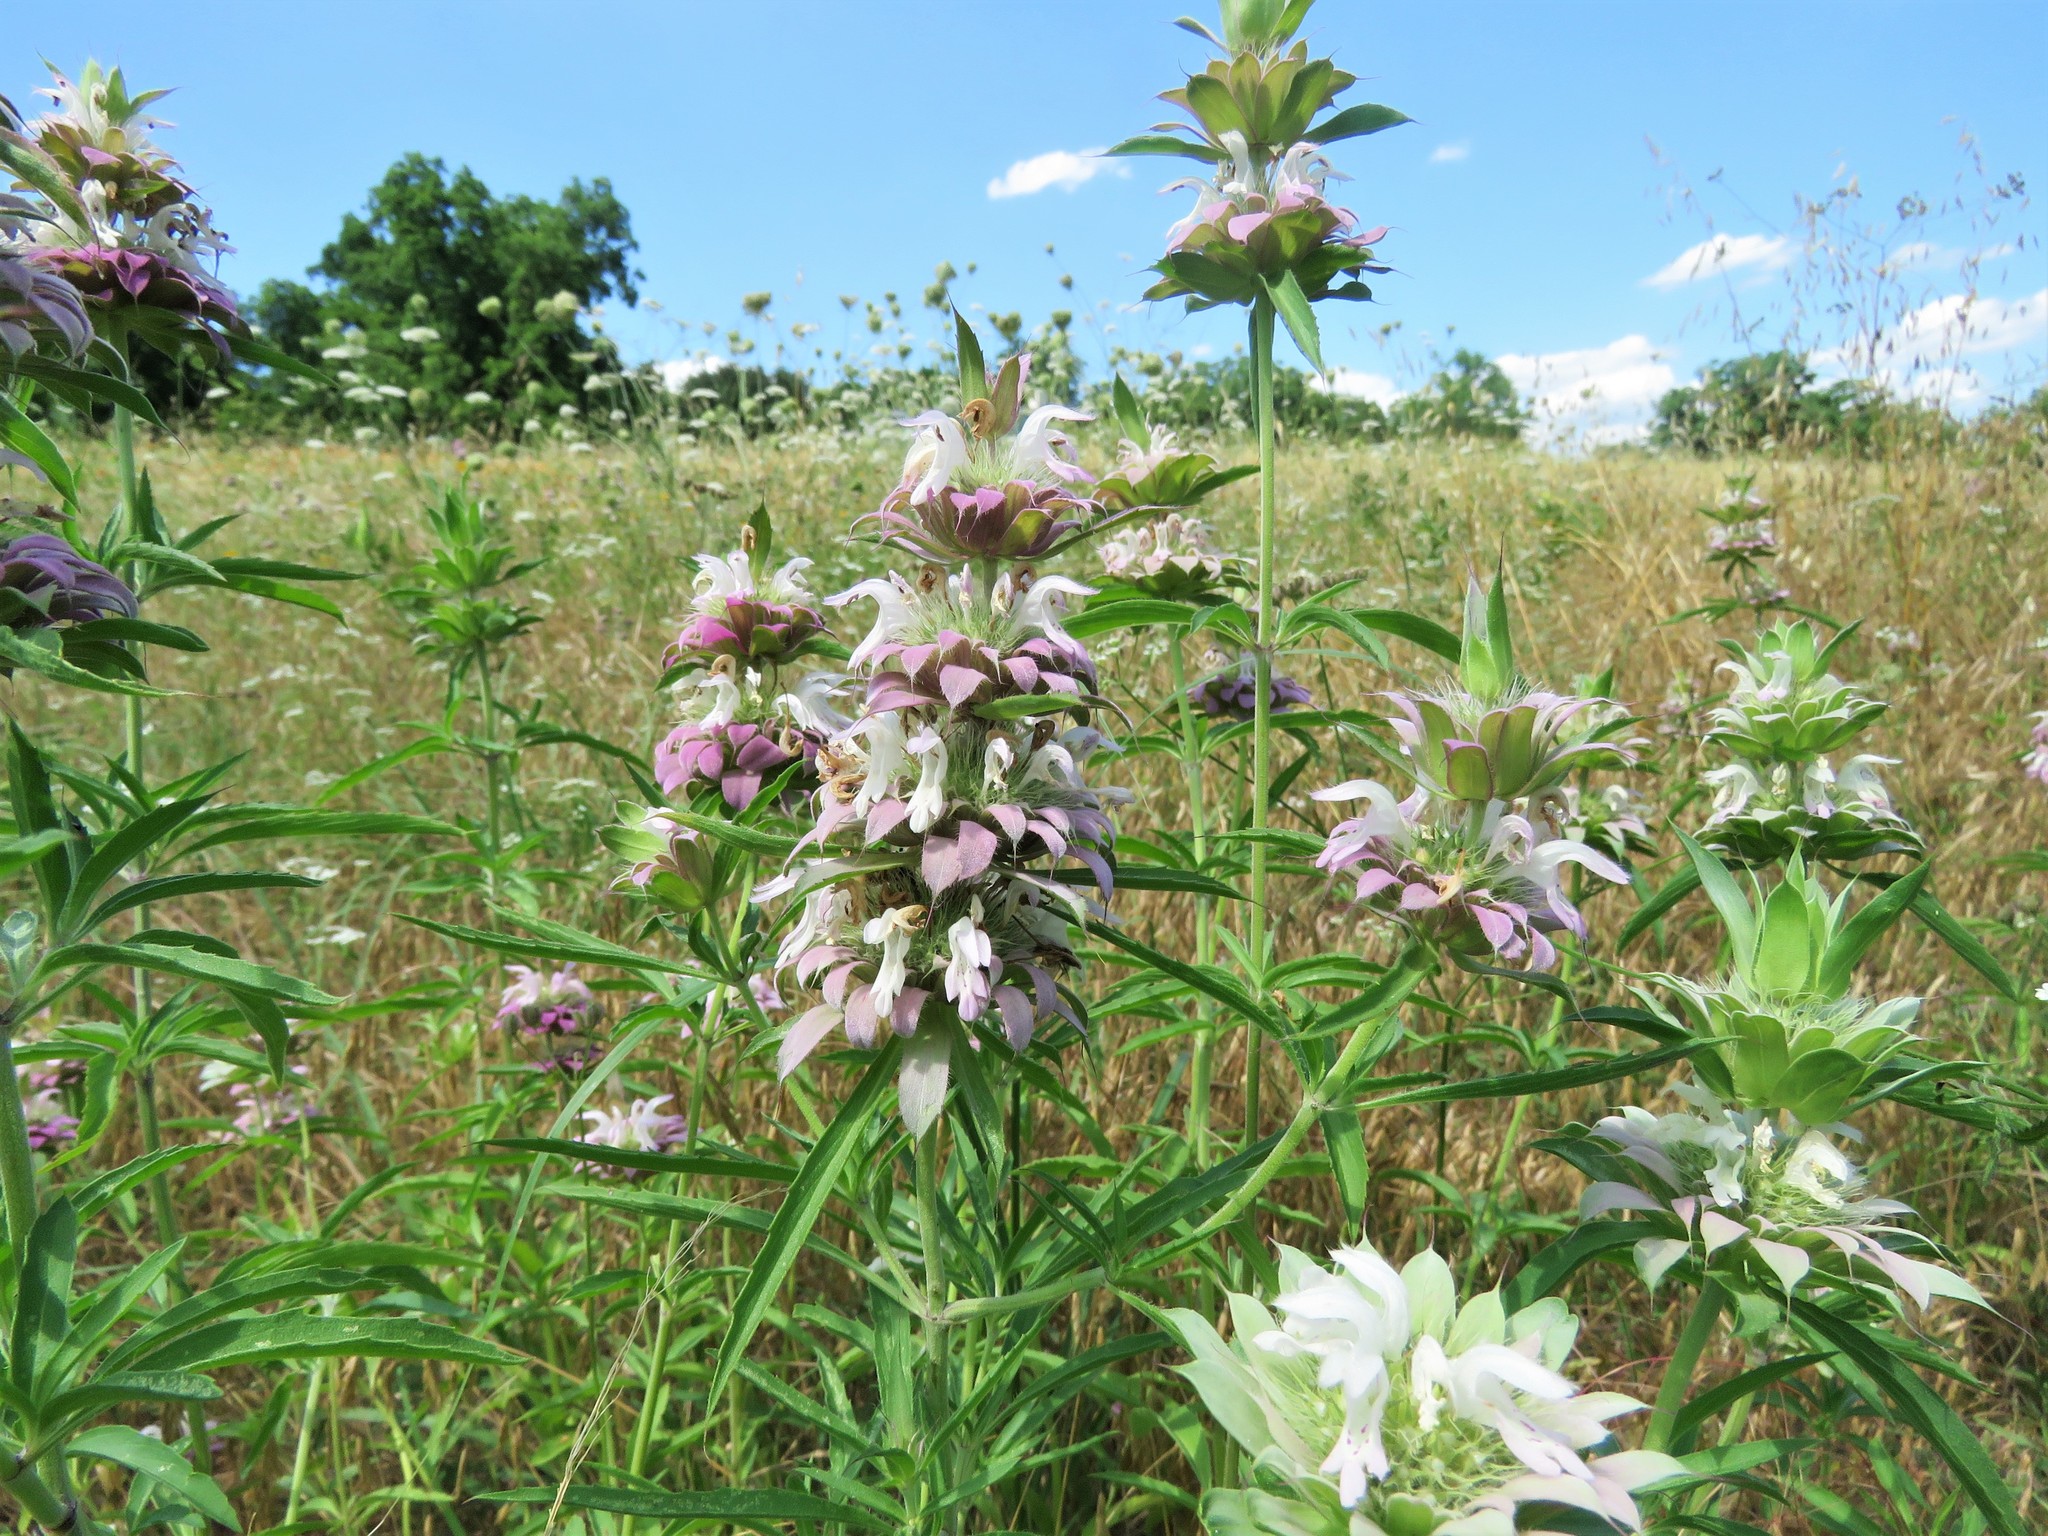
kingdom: Plantae
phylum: Tracheophyta
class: Magnoliopsida
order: Lamiales
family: Lamiaceae
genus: Monarda
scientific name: Monarda citriodora
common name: Lemon beebalm
